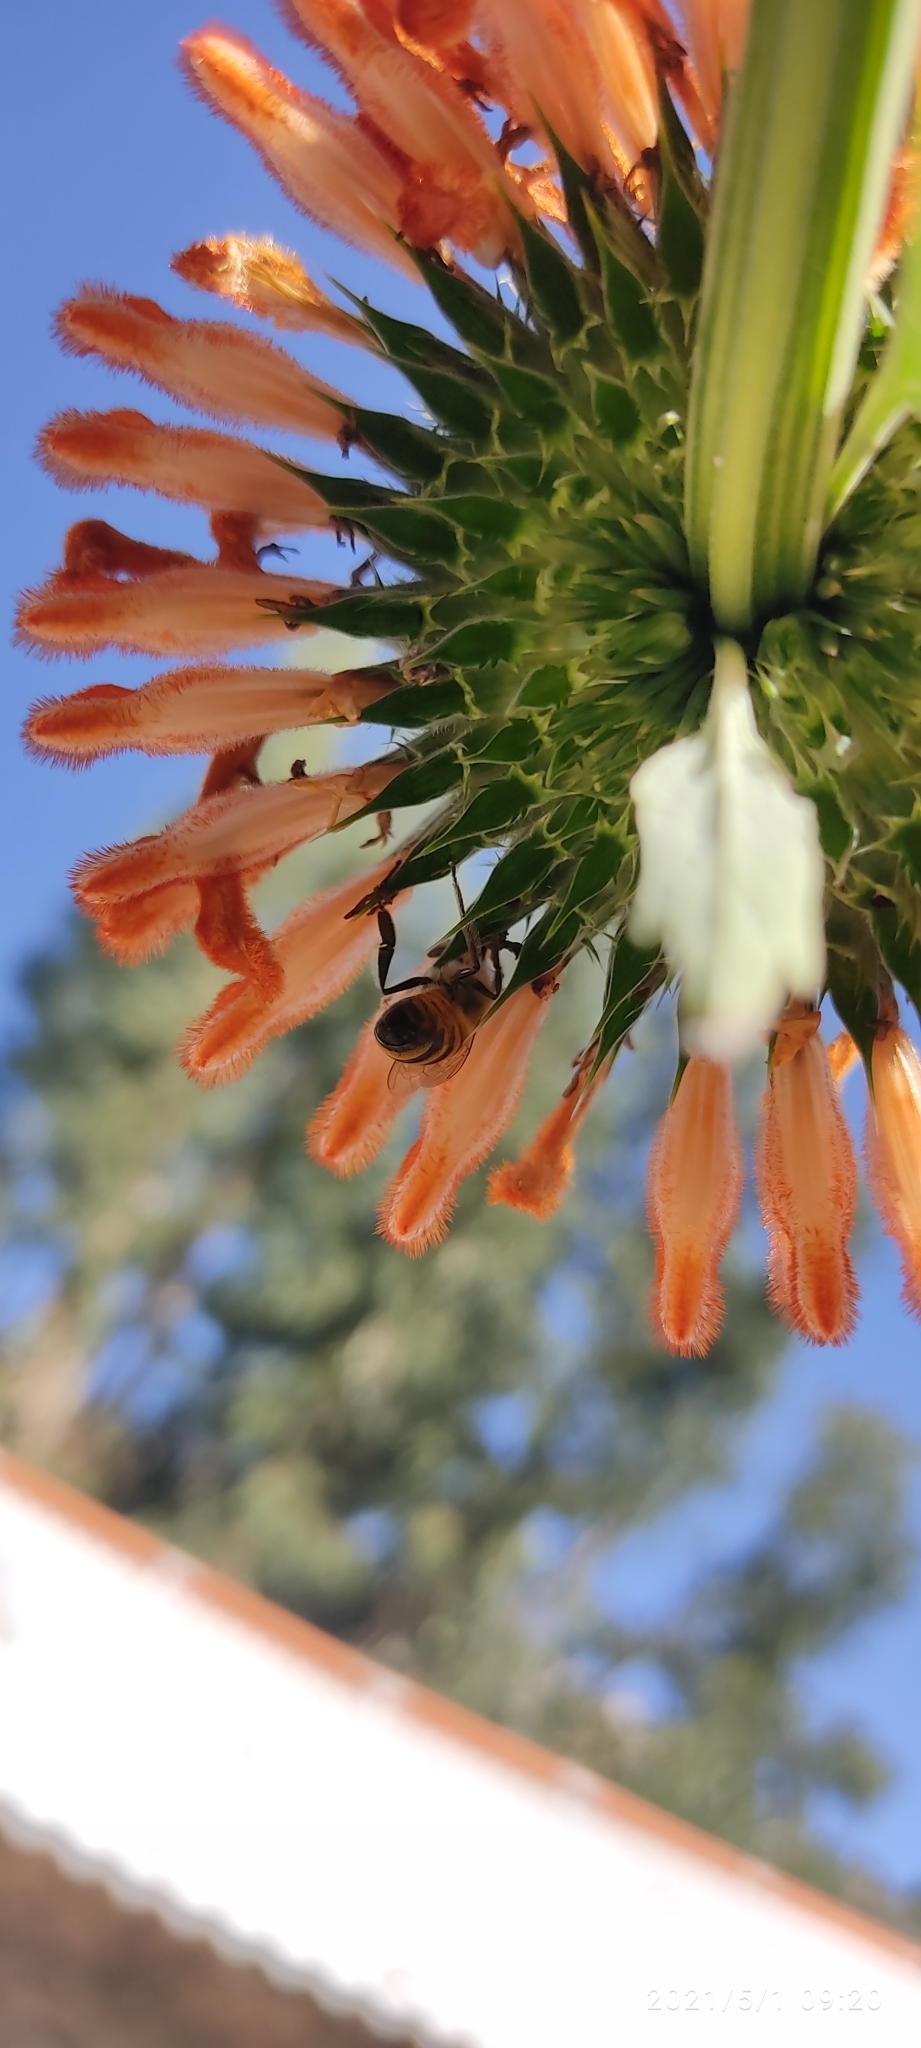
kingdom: Animalia
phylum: Arthropoda
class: Insecta
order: Hymenoptera
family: Apidae
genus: Apis
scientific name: Apis mellifera
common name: Honey bee
